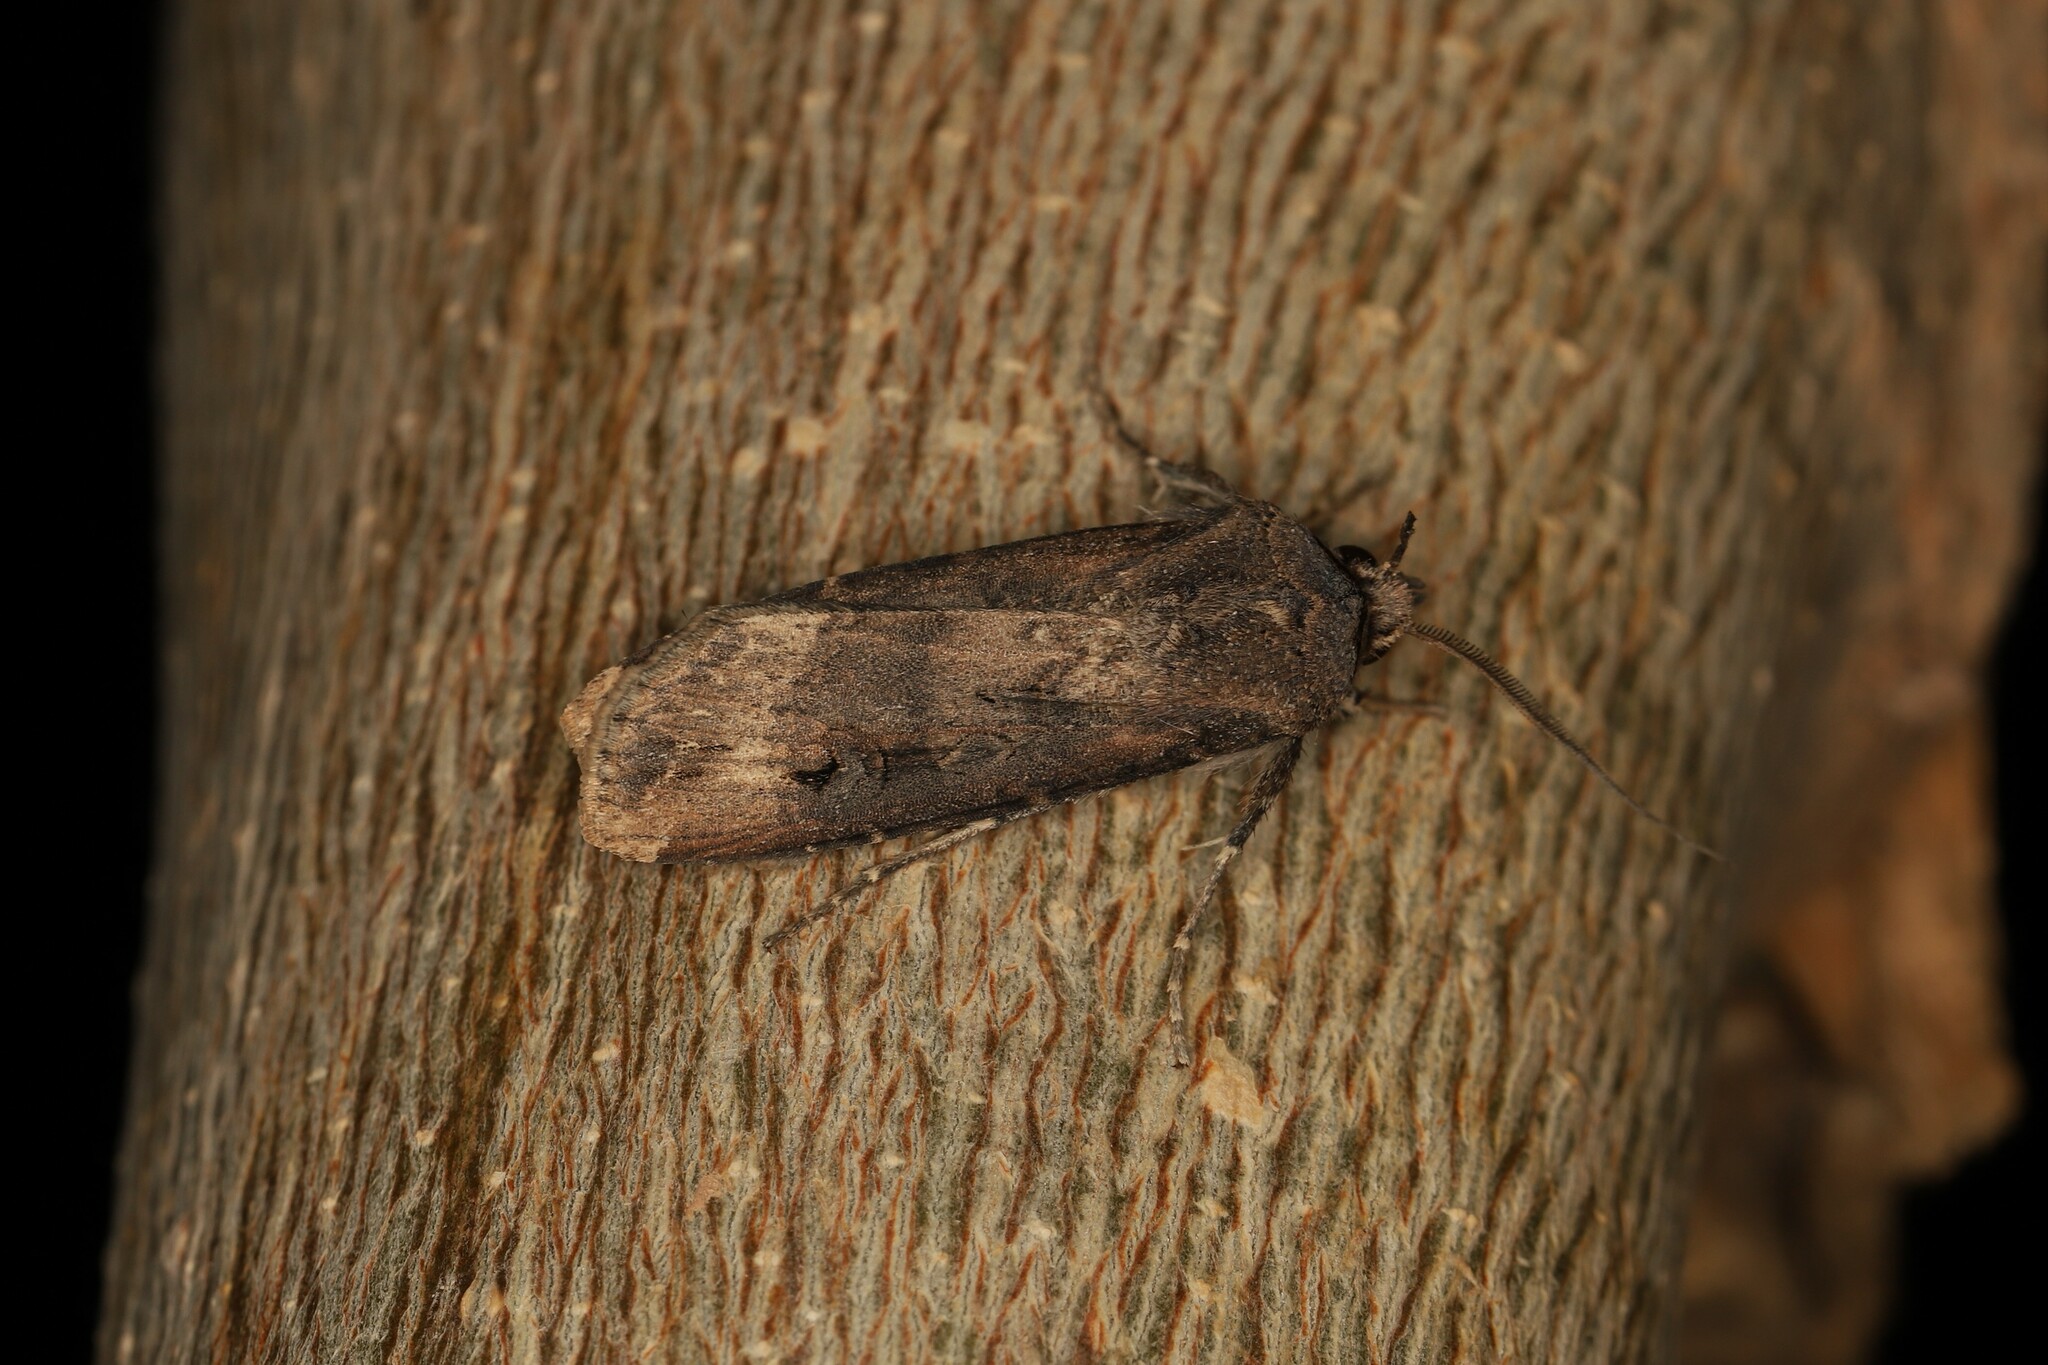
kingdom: Animalia
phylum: Arthropoda
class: Insecta
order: Lepidoptera
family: Noctuidae
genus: Agrotis
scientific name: Agrotis ipsilon
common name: Dark sword-grass
